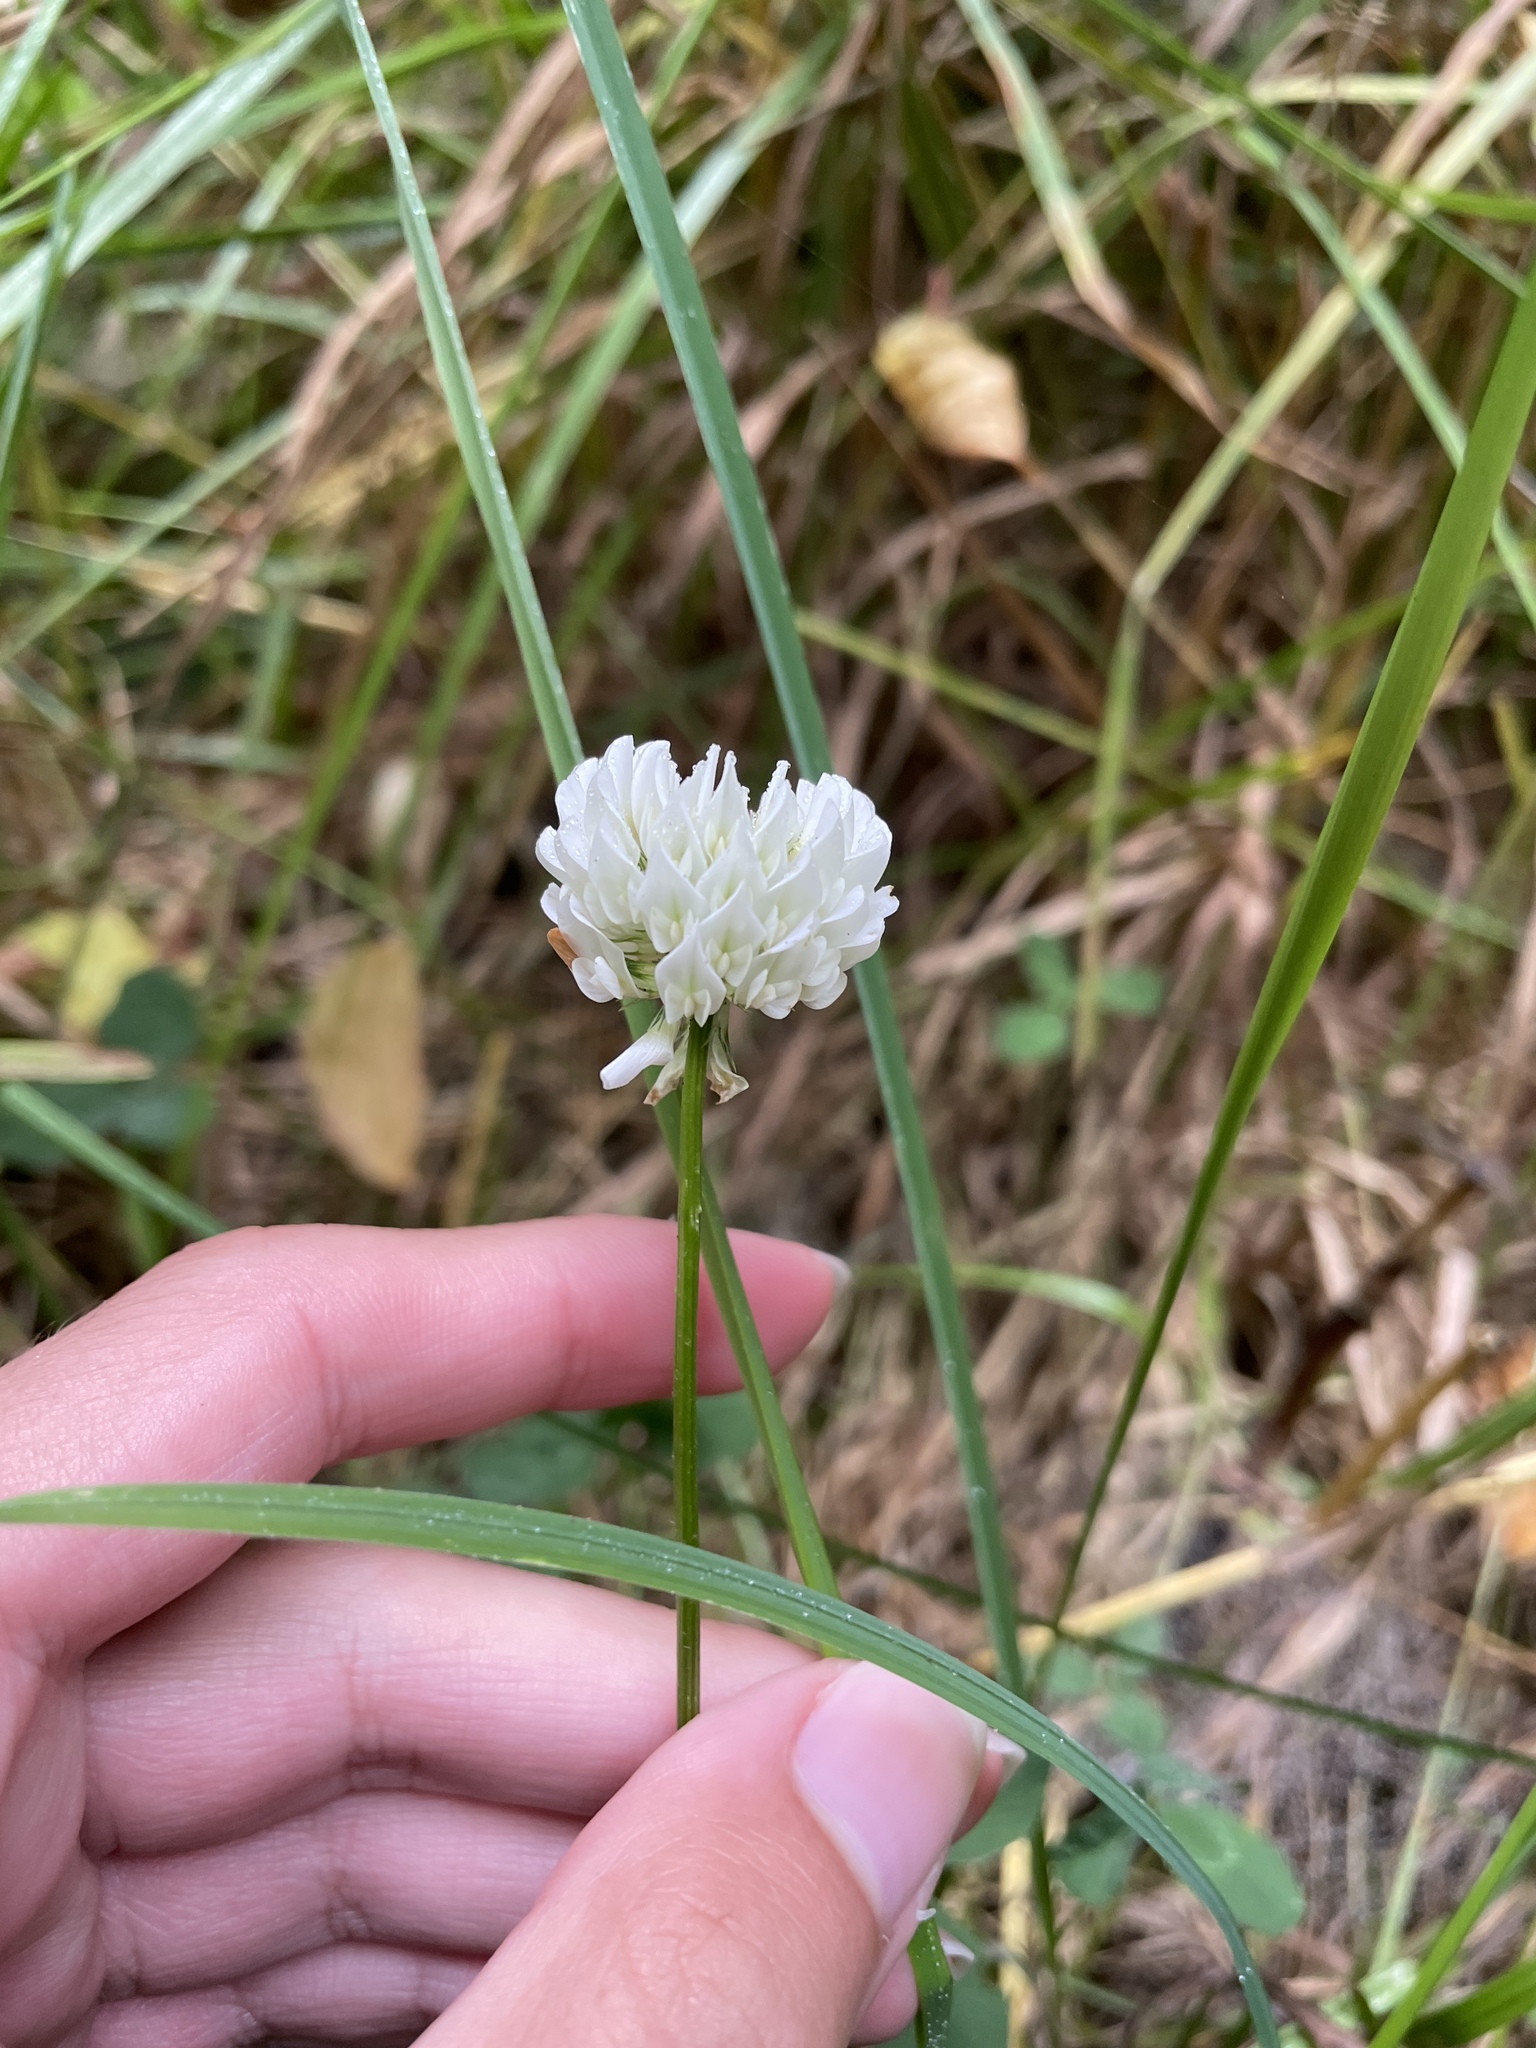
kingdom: Plantae
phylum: Tracheophyta
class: Magnoliopsida
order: Fabales
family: Fabaceae
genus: Trifolium
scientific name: Trifolium repens
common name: White clover
